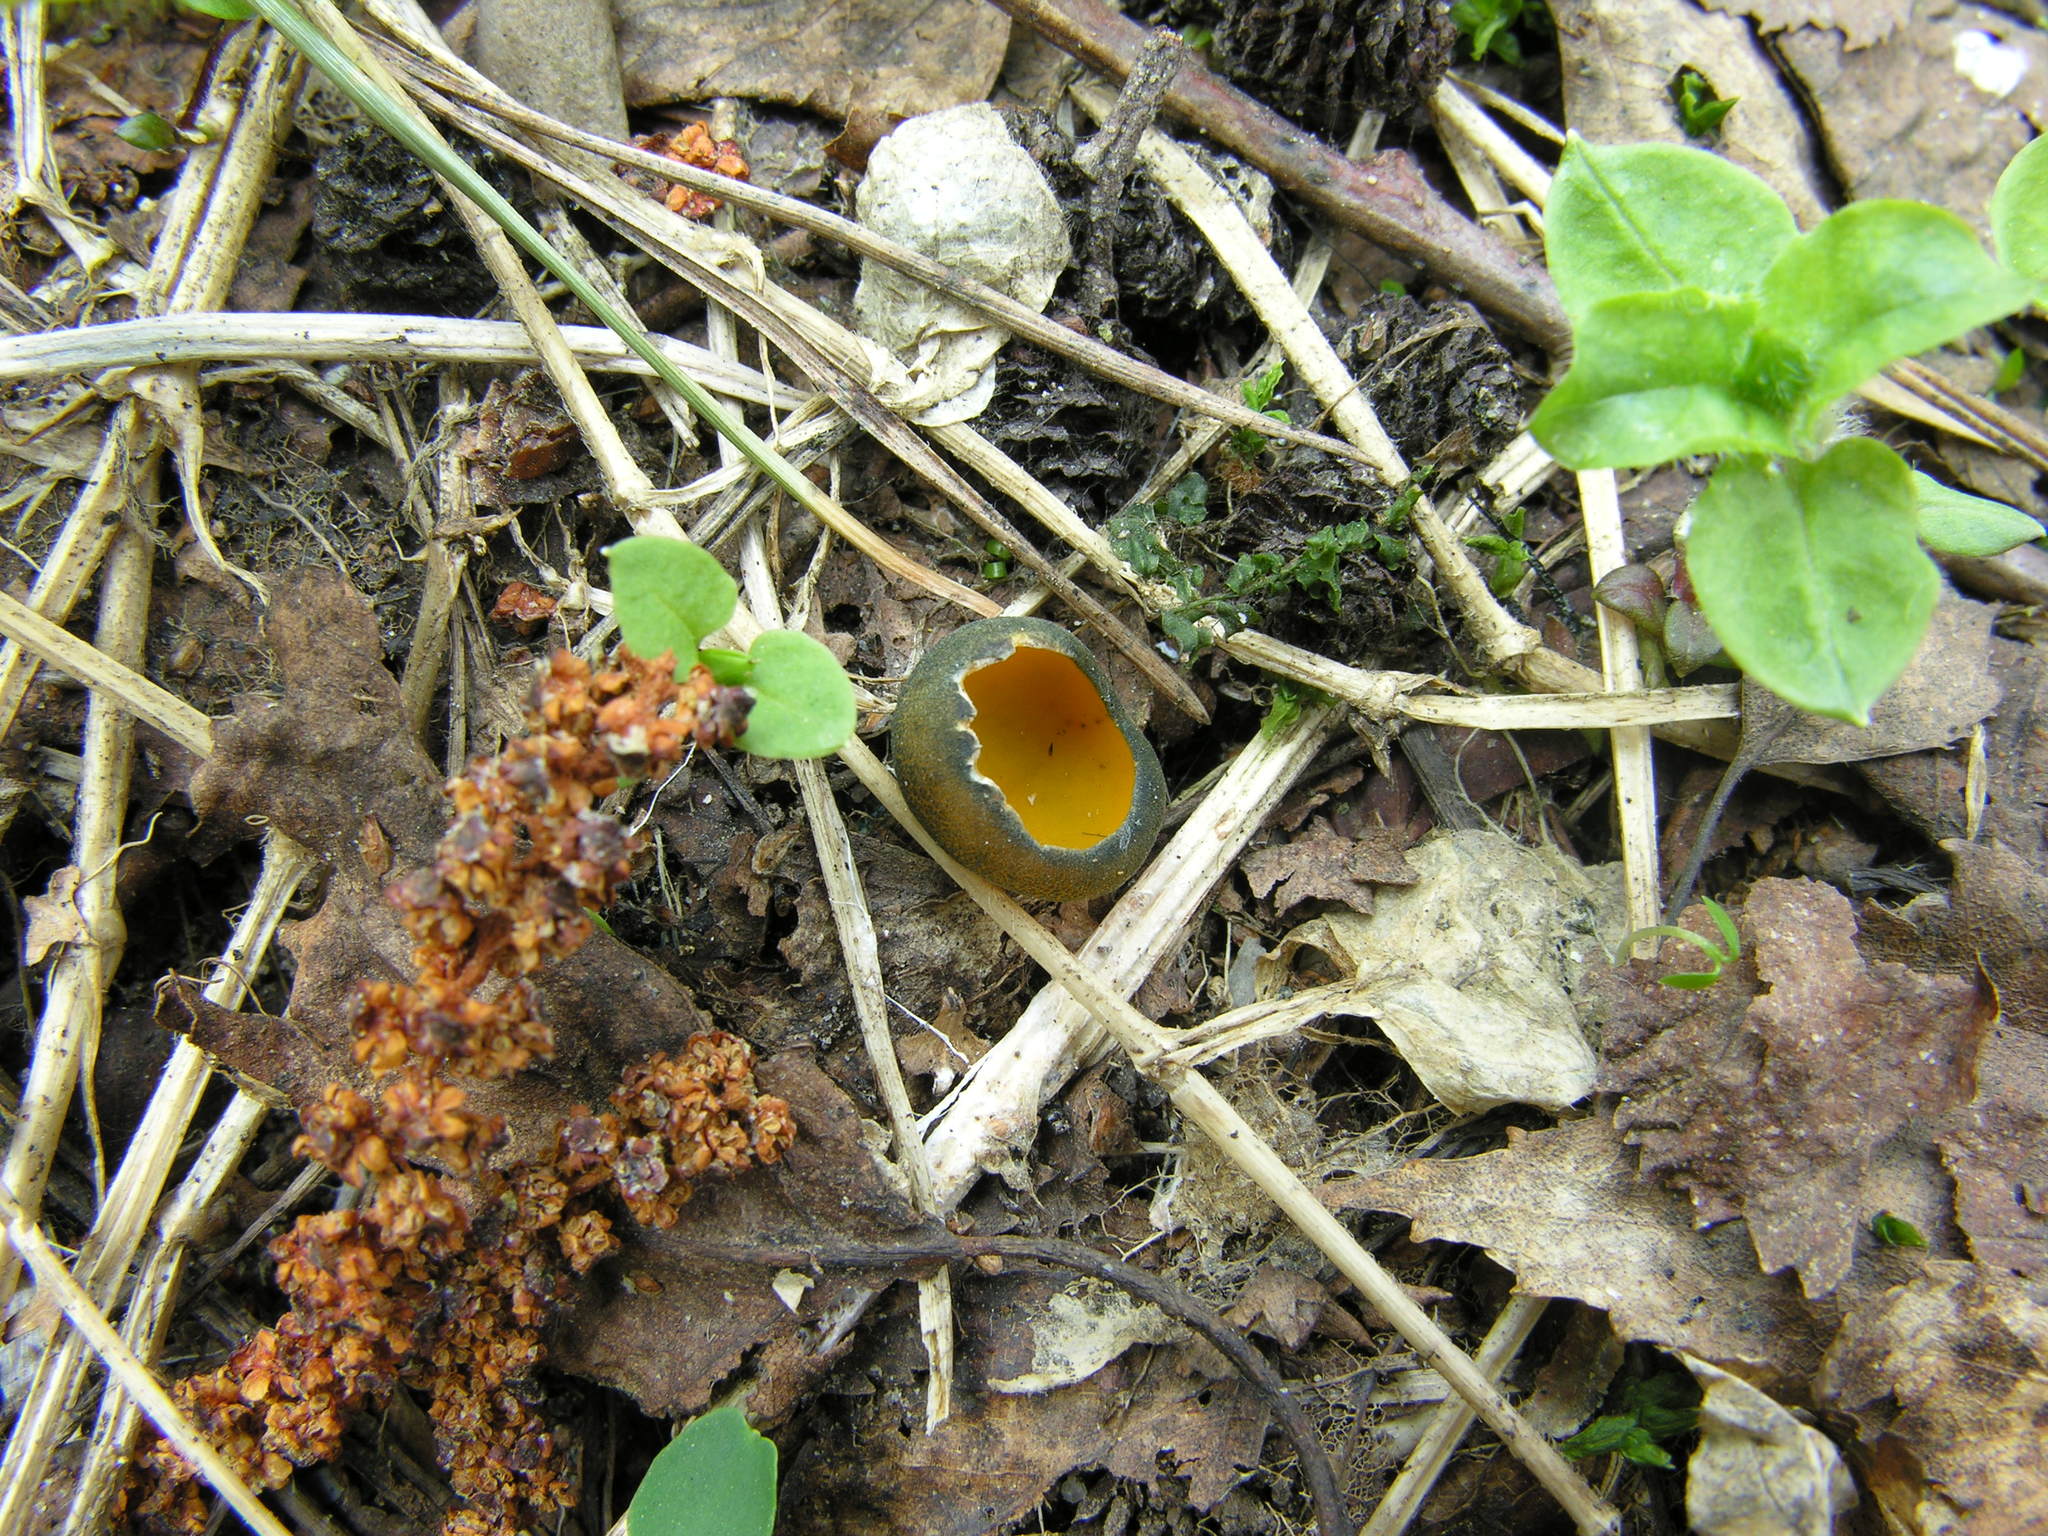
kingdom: Fungi
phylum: Ascomycota
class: Pezizomycetes
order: Pezizales
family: Caloscyphaceae
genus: Caloscypha
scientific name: Caloscypha fulgens
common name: Golden cup
